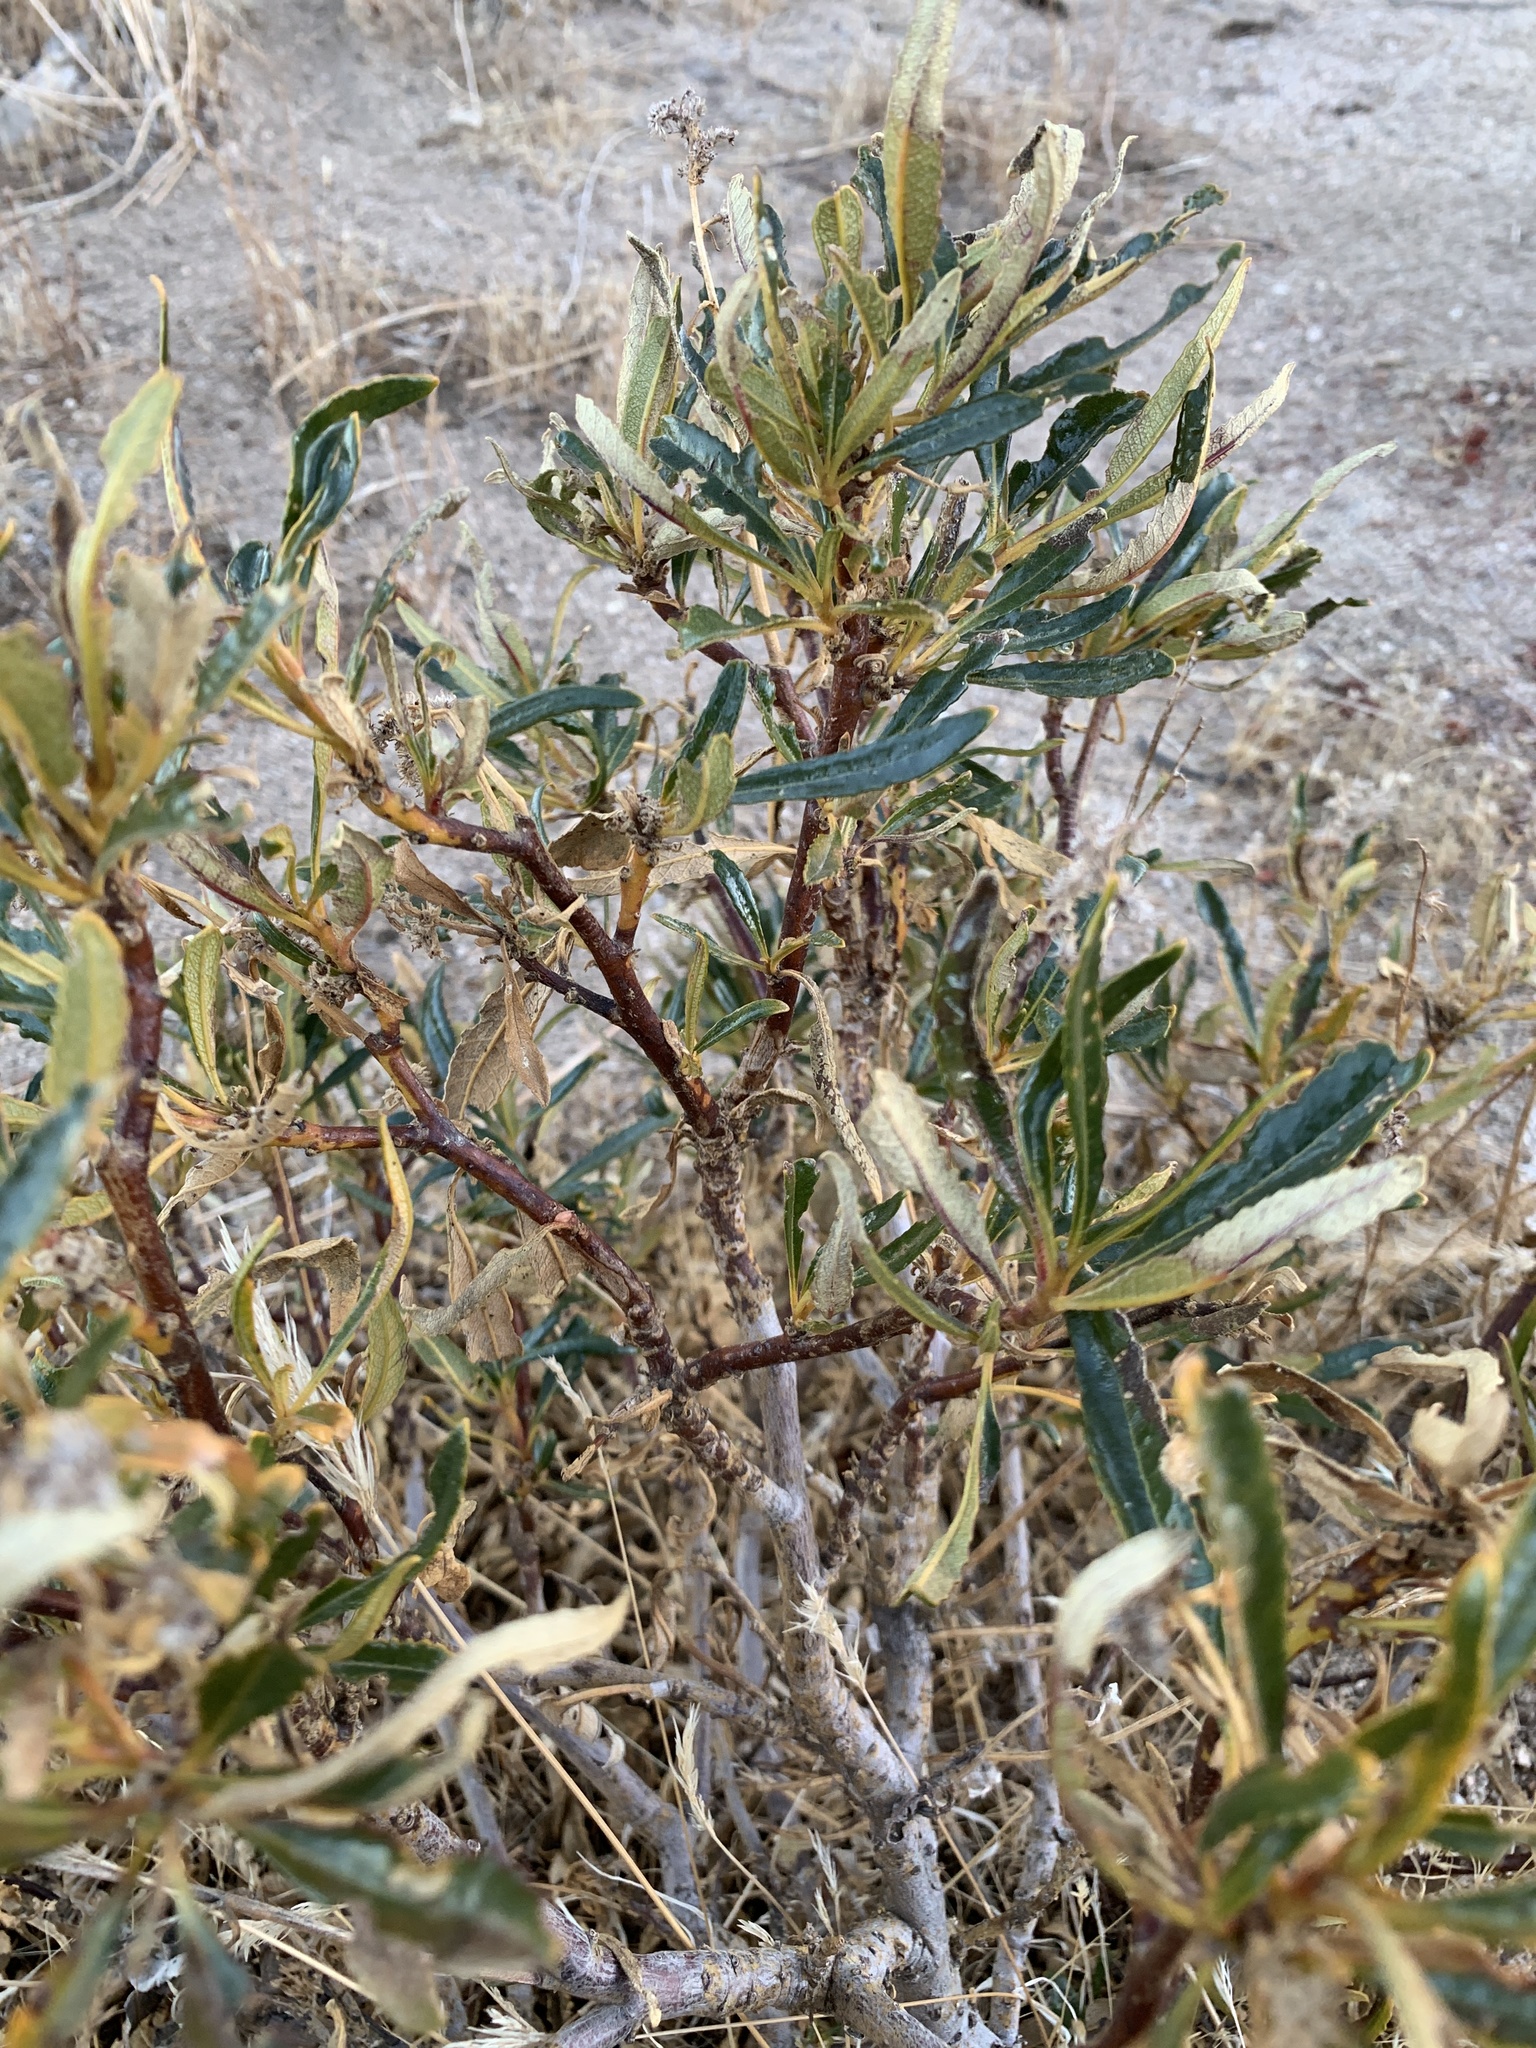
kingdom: Plantae
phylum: Tracheophyta
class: Magnoliopsida
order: Boraginales
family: Namaceae
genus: Eriodictyon
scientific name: Eriodictyon trichocalyx
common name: Hairy yerba-santa
